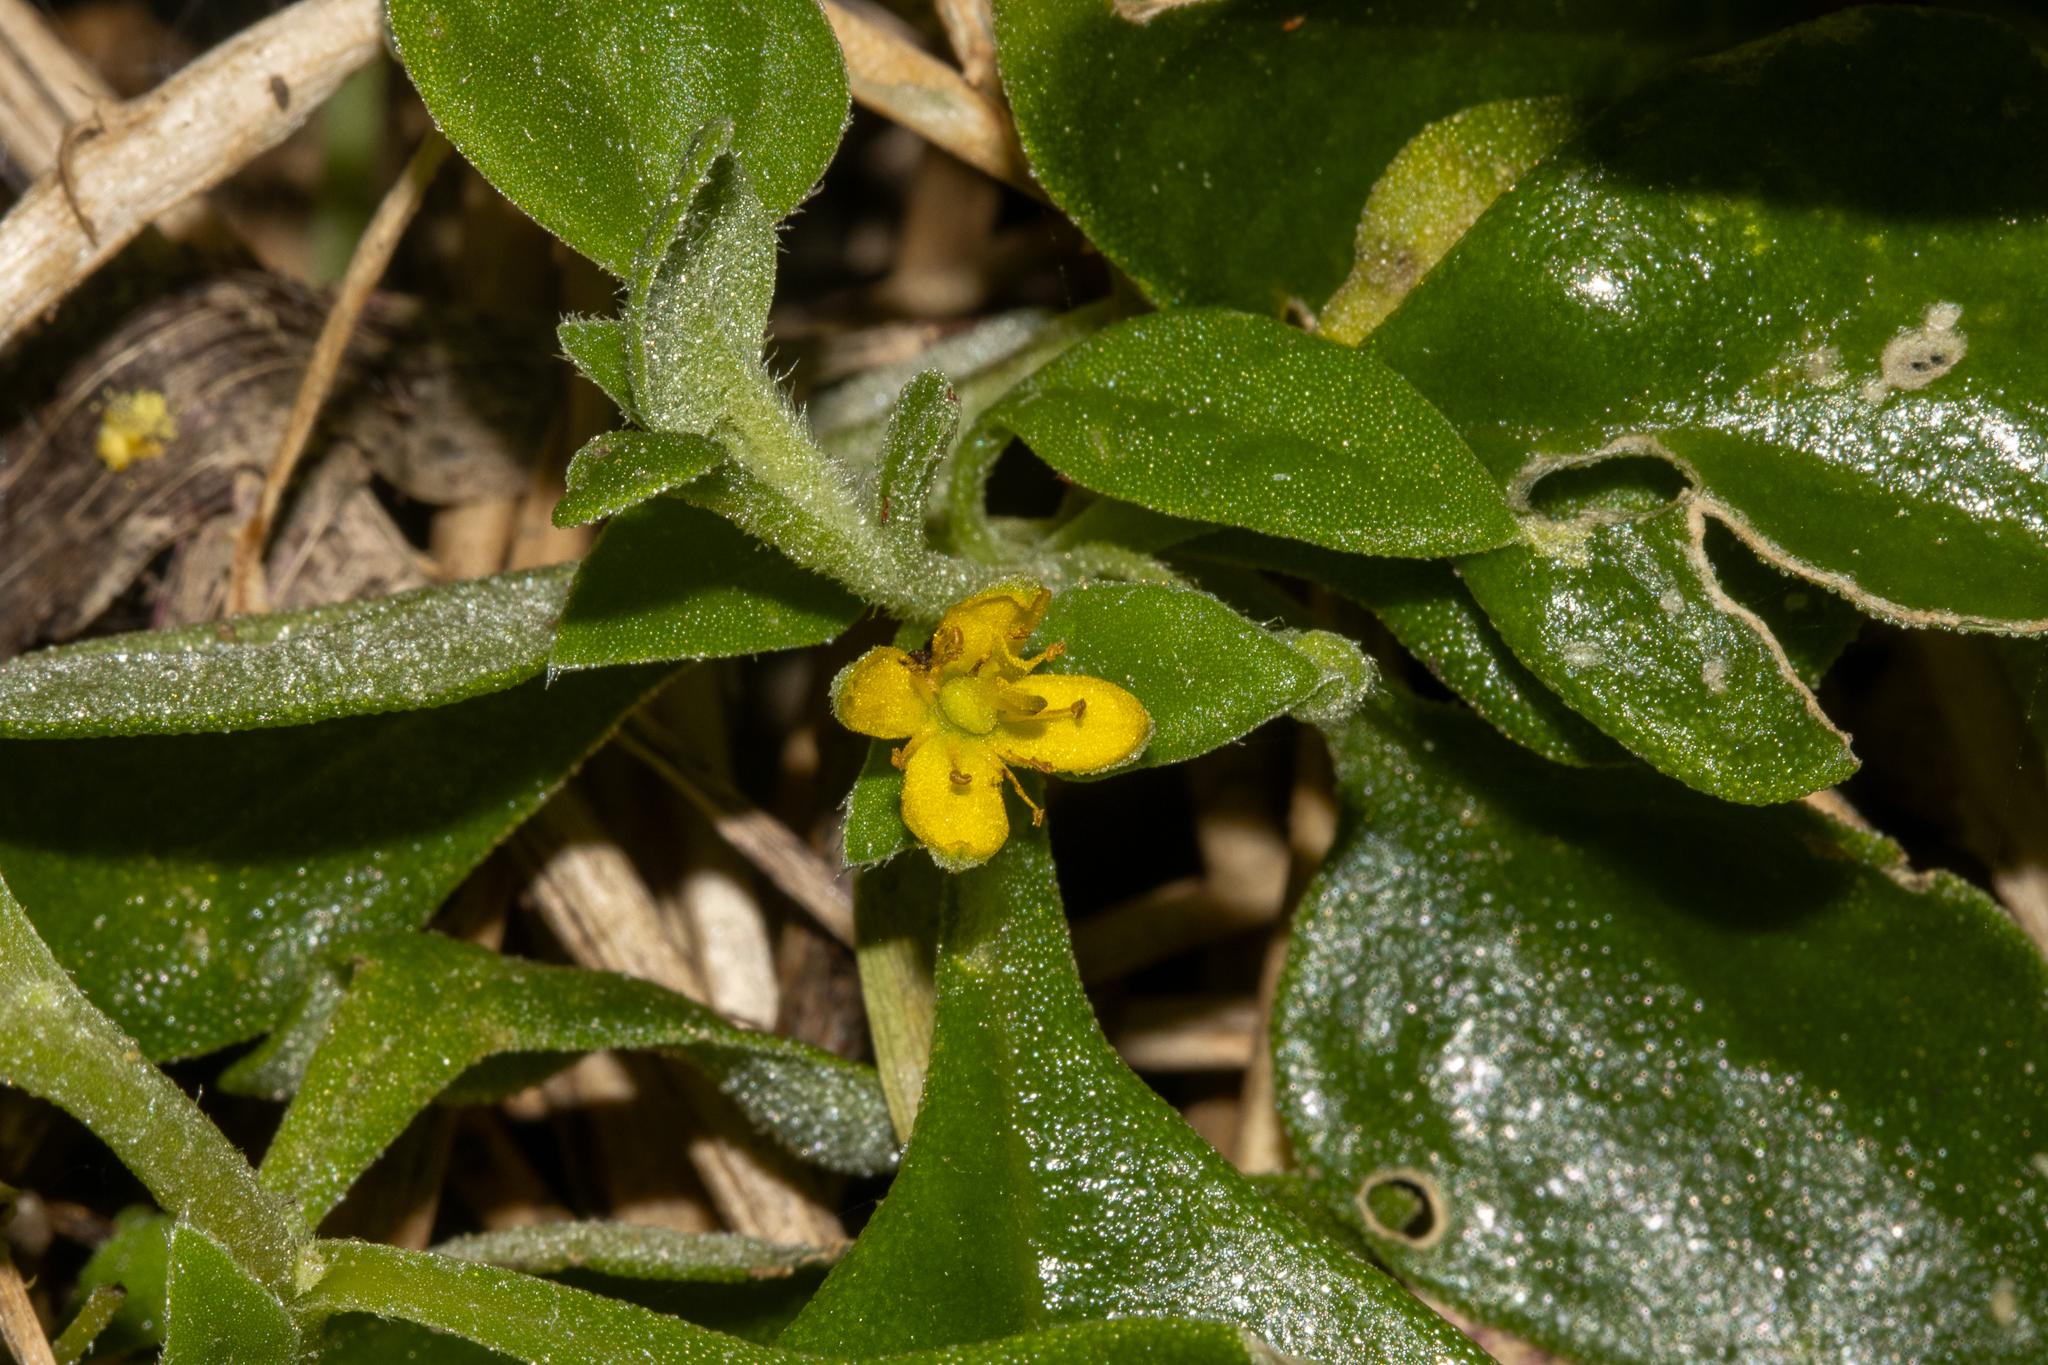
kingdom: Plantae
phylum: Tracheophyta
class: Magnoliopsida
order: Caryophyllales
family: Aizoaceae
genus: Tetragonia
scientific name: Tetragonia implexicoma
